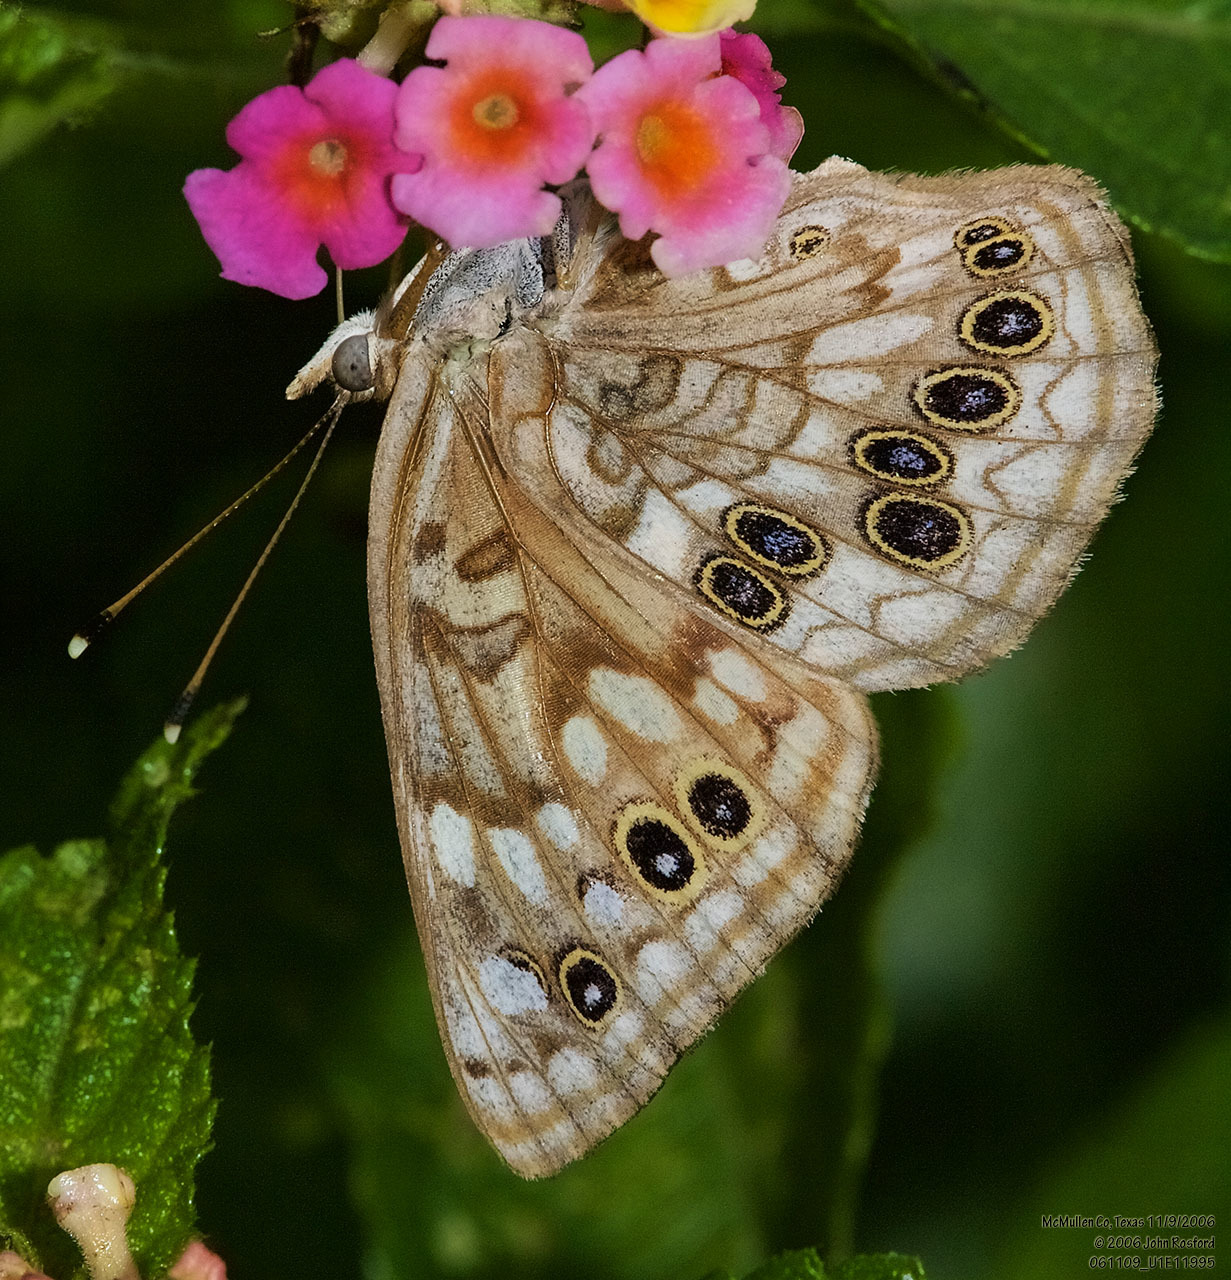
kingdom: Animalia
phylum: Arthropoda
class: Insecta
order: Lepidoptera
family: Nymphalidae
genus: Asterocampa
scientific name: Asterocampa celtis
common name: Hackberry emperor
